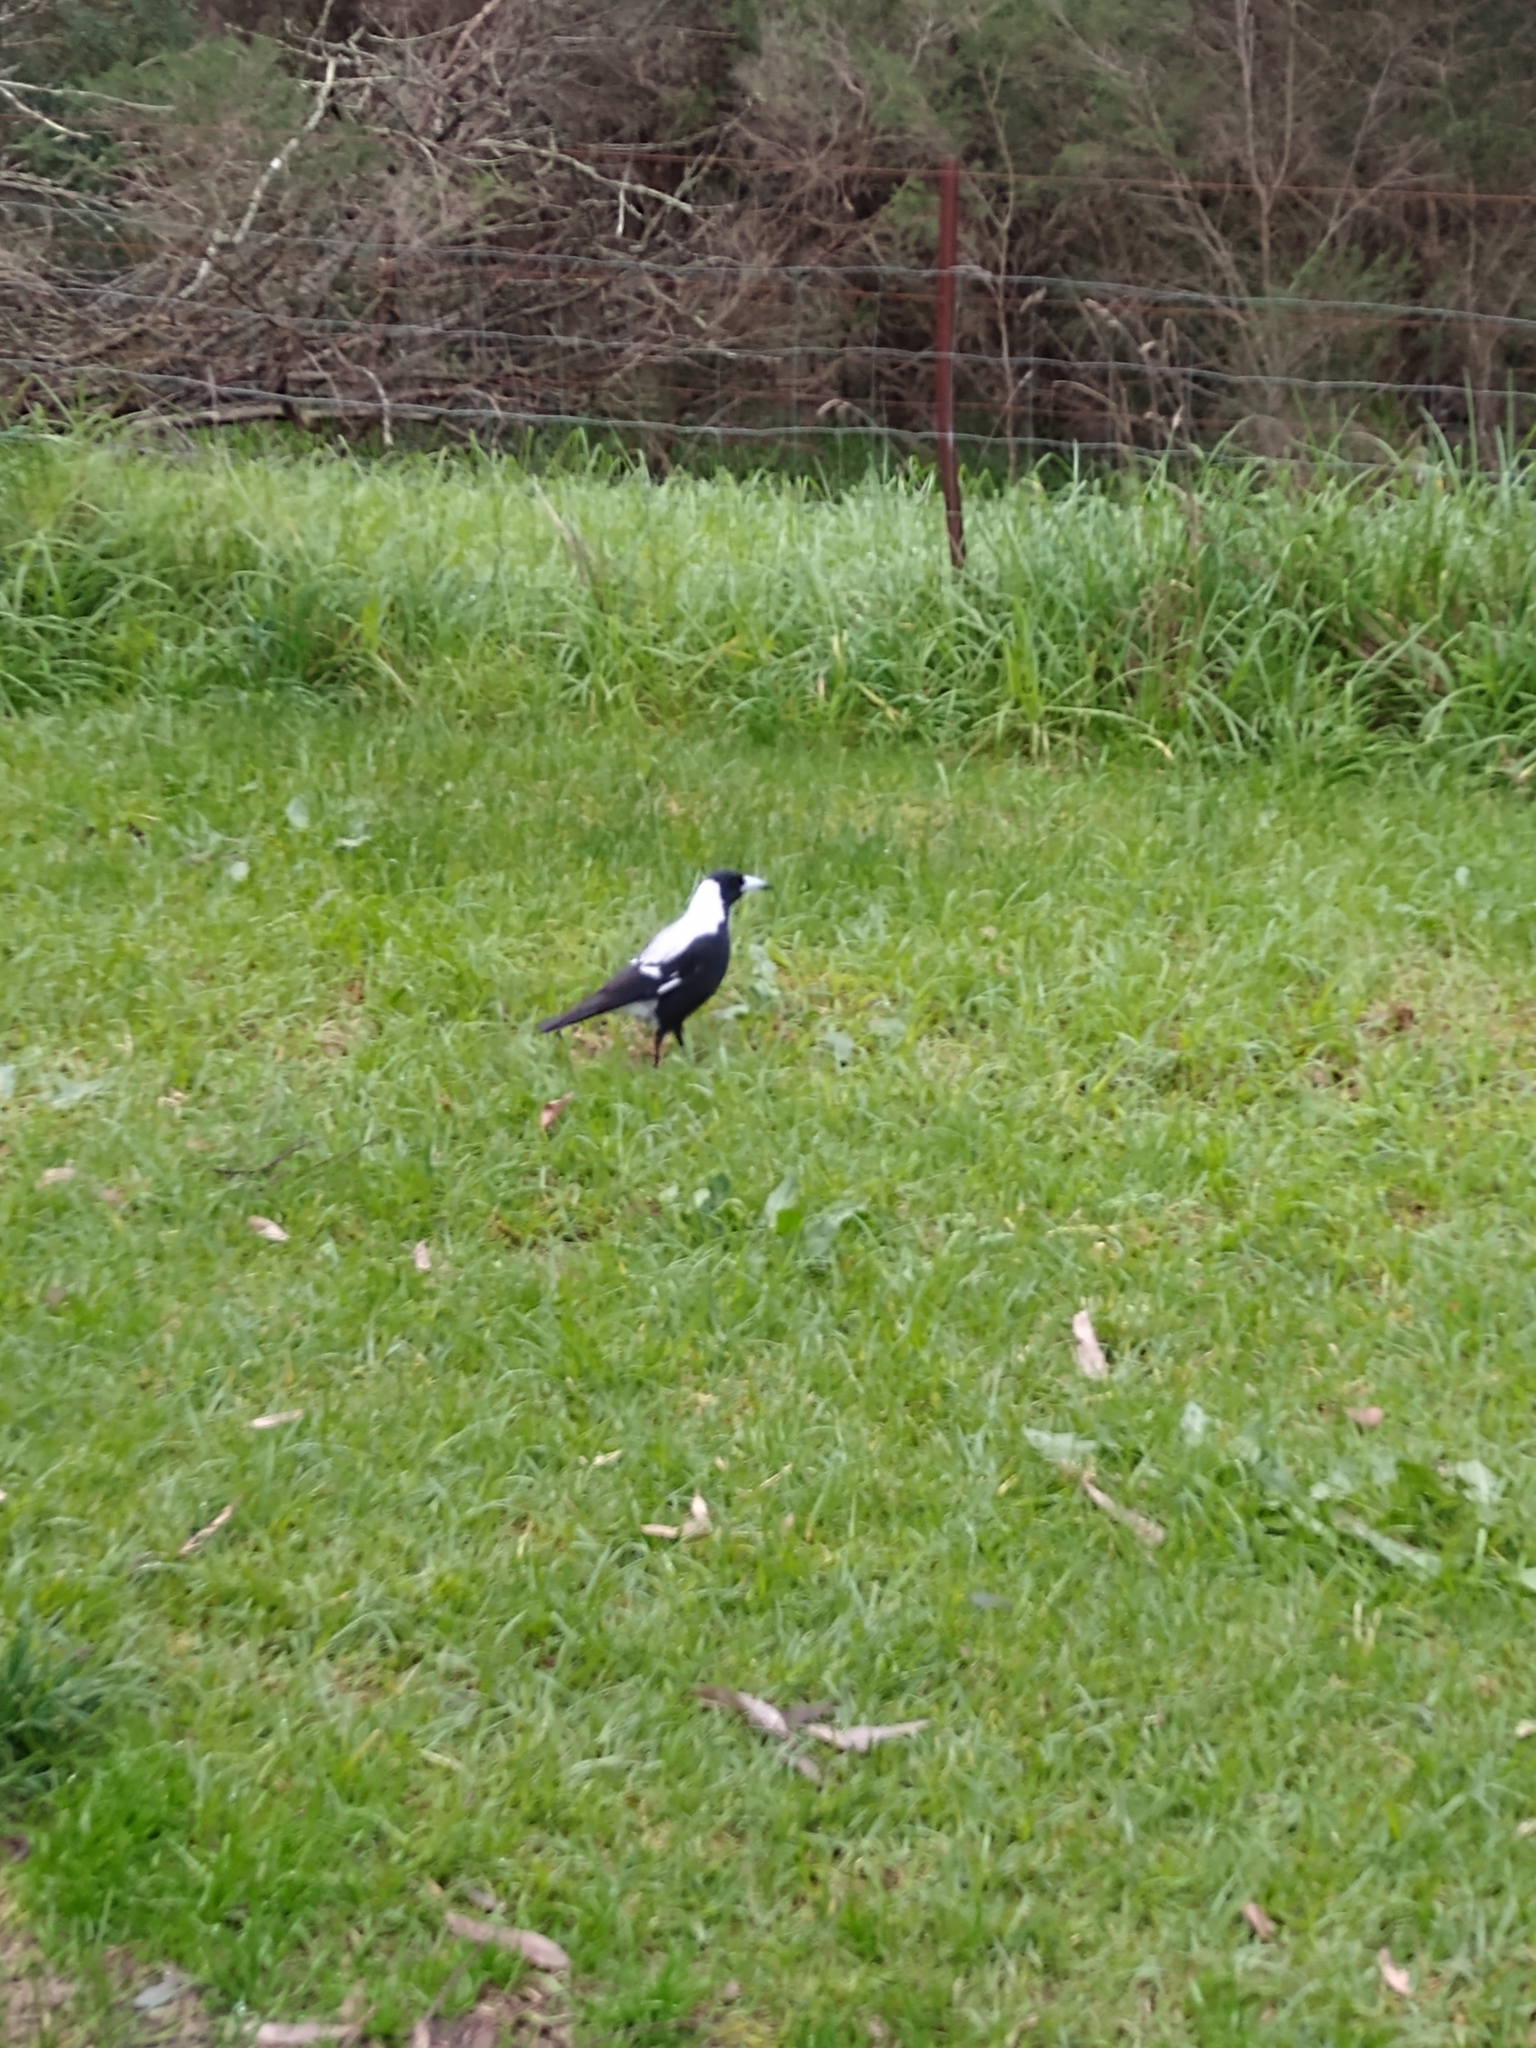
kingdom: Animalia
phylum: Chordata
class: Aves
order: Passeriformes
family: Cracticidae
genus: Gymnorhina
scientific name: Gymnorhina tibicen
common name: Australian magpie
